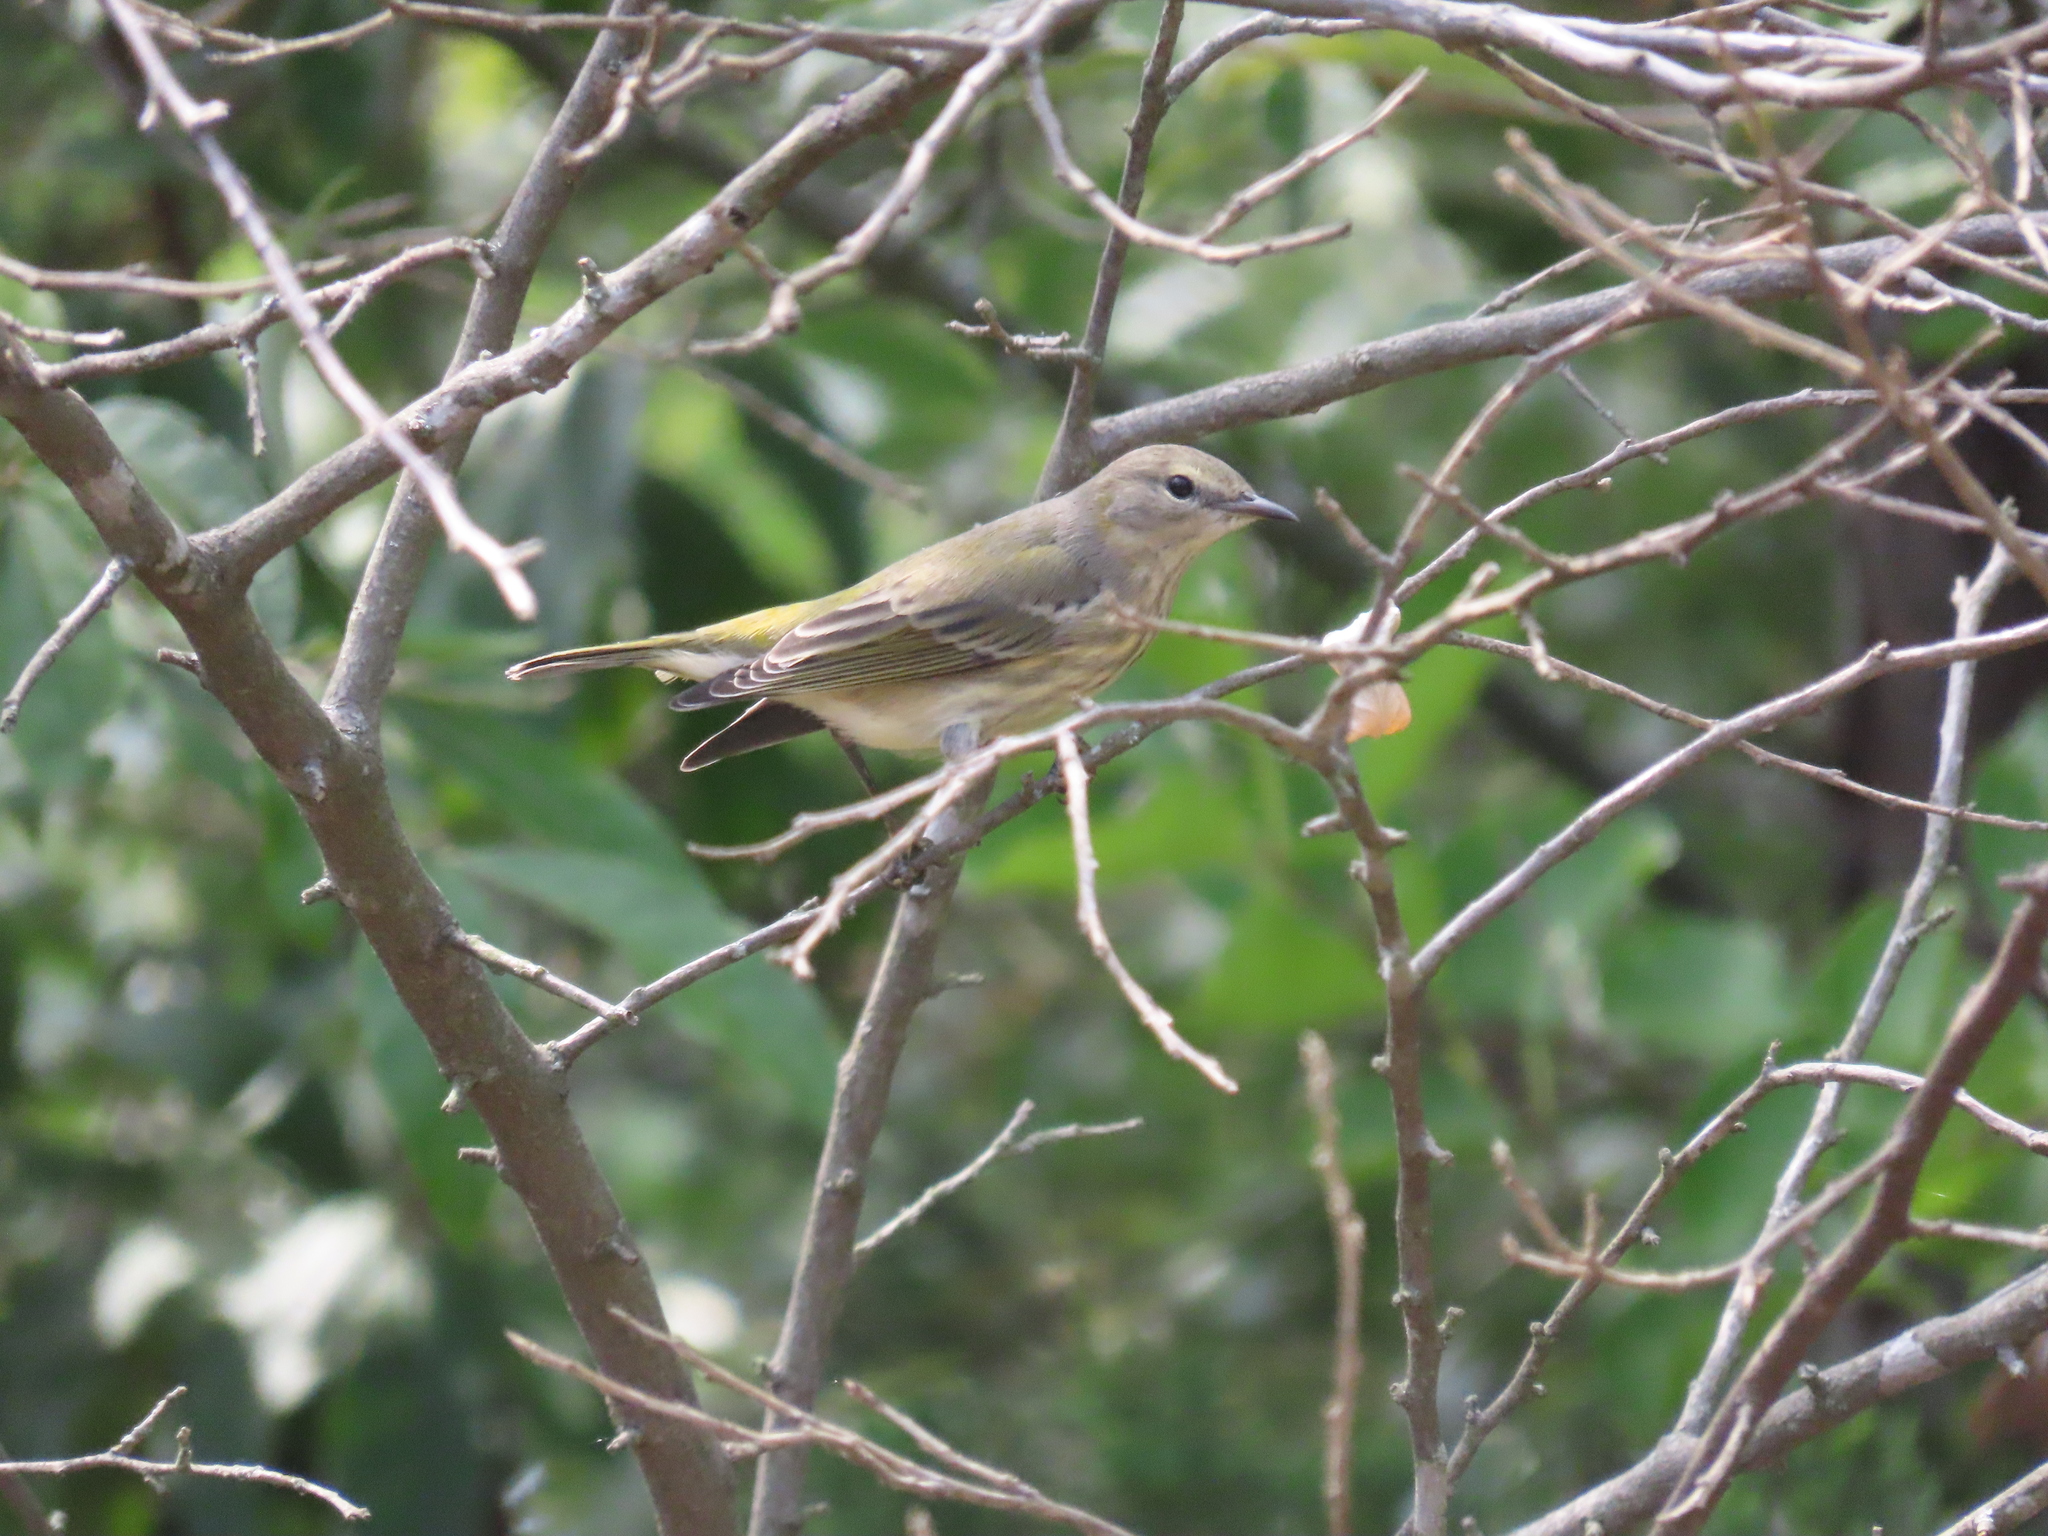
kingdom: Animalia
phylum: Chordata
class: Aves
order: Passeriformes
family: Parulidae
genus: Setophaga
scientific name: Setophaga tigrina
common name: Cape may warbler
